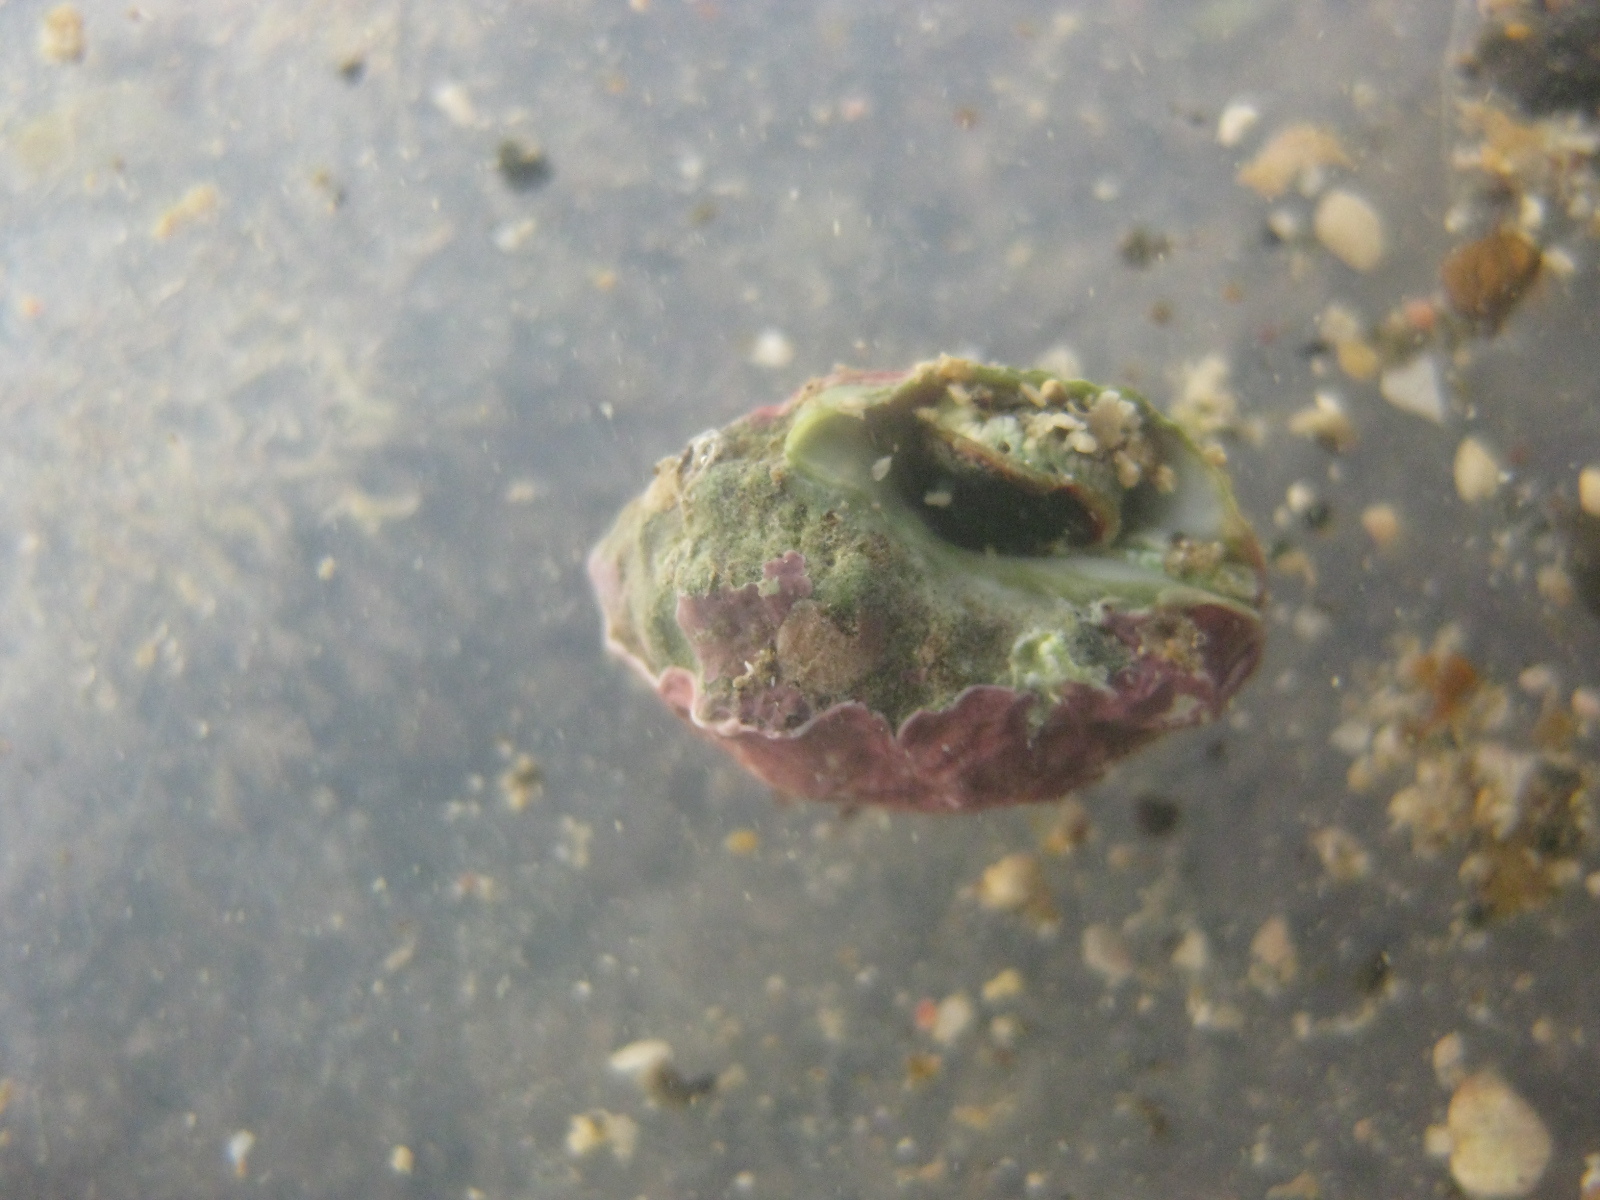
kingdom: Animalia
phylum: Mollusca
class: Gastropoda
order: Neogastropoda
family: Muricidae
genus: Oppomorus
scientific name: Oppomorus noduliferus
